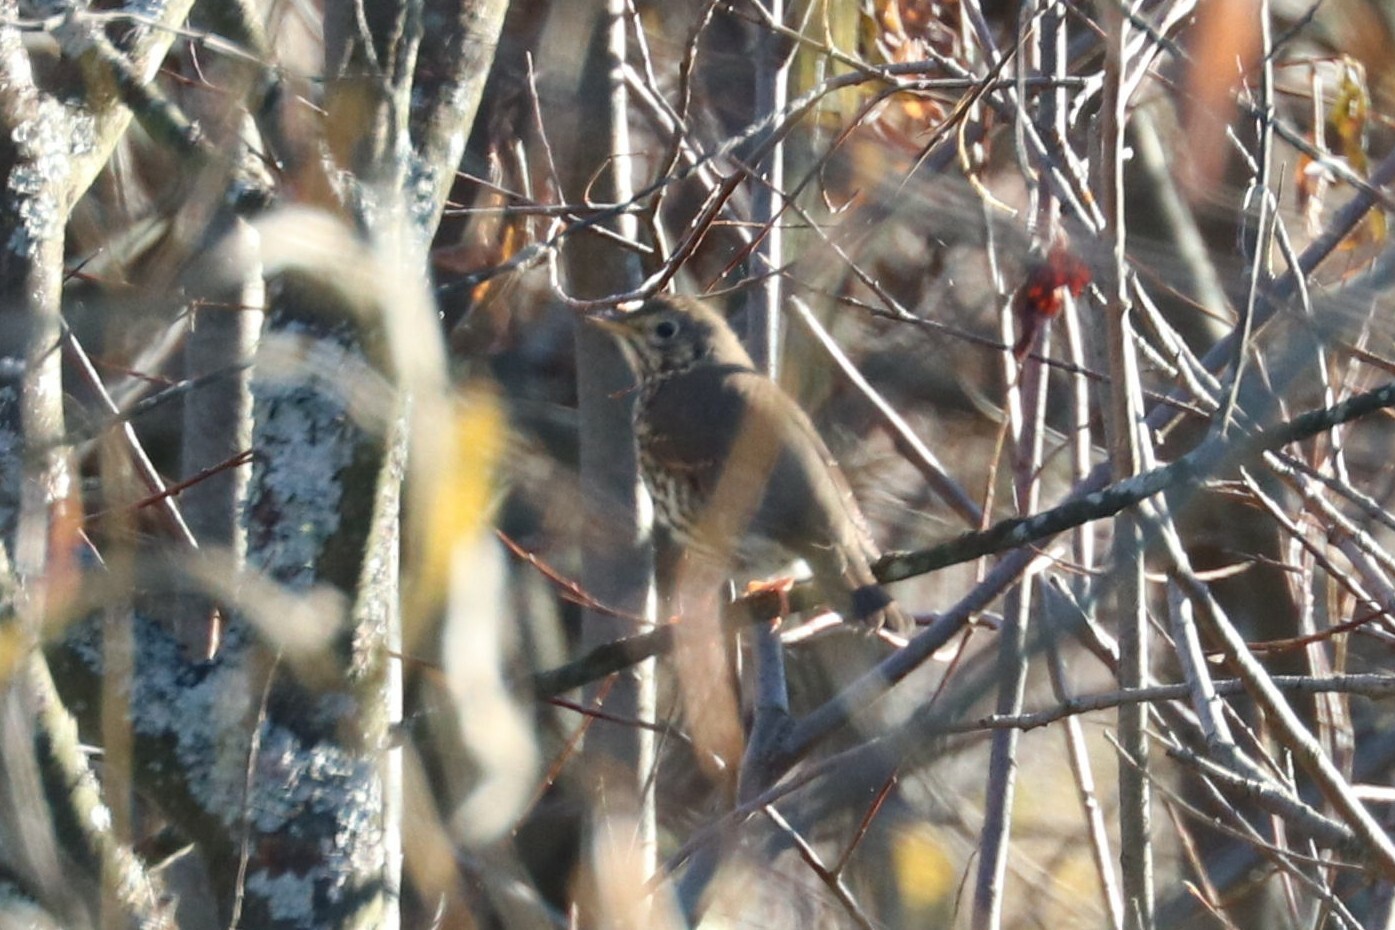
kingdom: Animalia
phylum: Chordata
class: Aves
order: Passeriformes
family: Turdidae
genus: Turdus
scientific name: Turdus philomelos
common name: Song thrush
